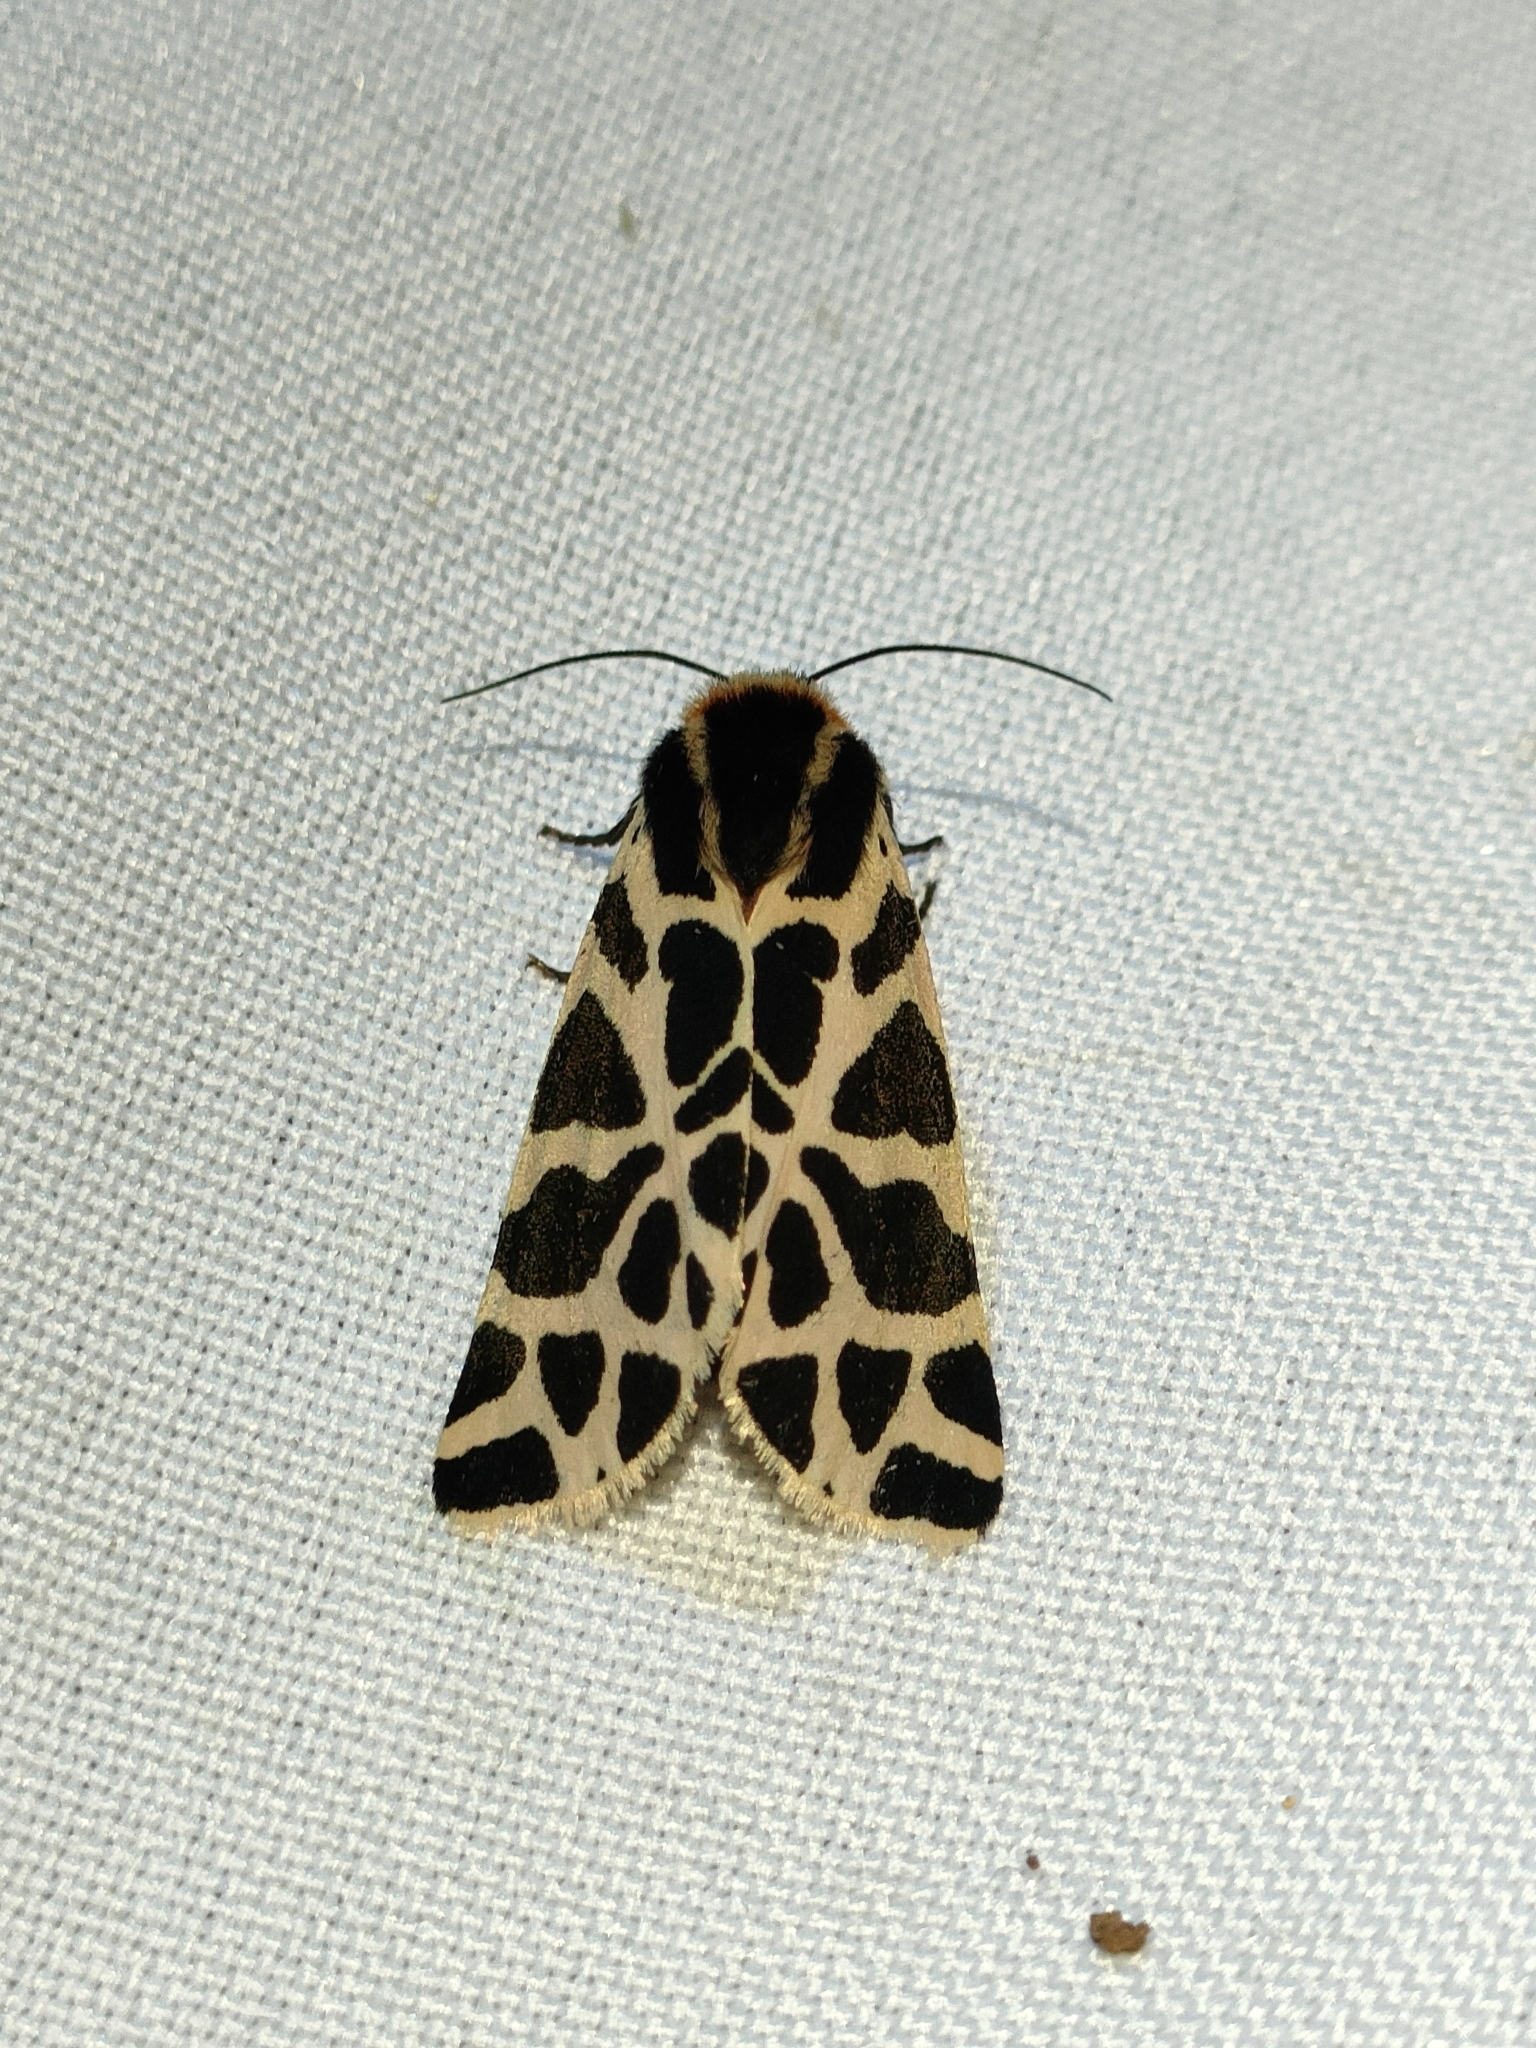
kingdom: Animalia
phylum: Arthropoda
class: Insecta
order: Lepidoptera
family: Erebidae
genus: Cymbalophora
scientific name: Cymbalophora pudica
